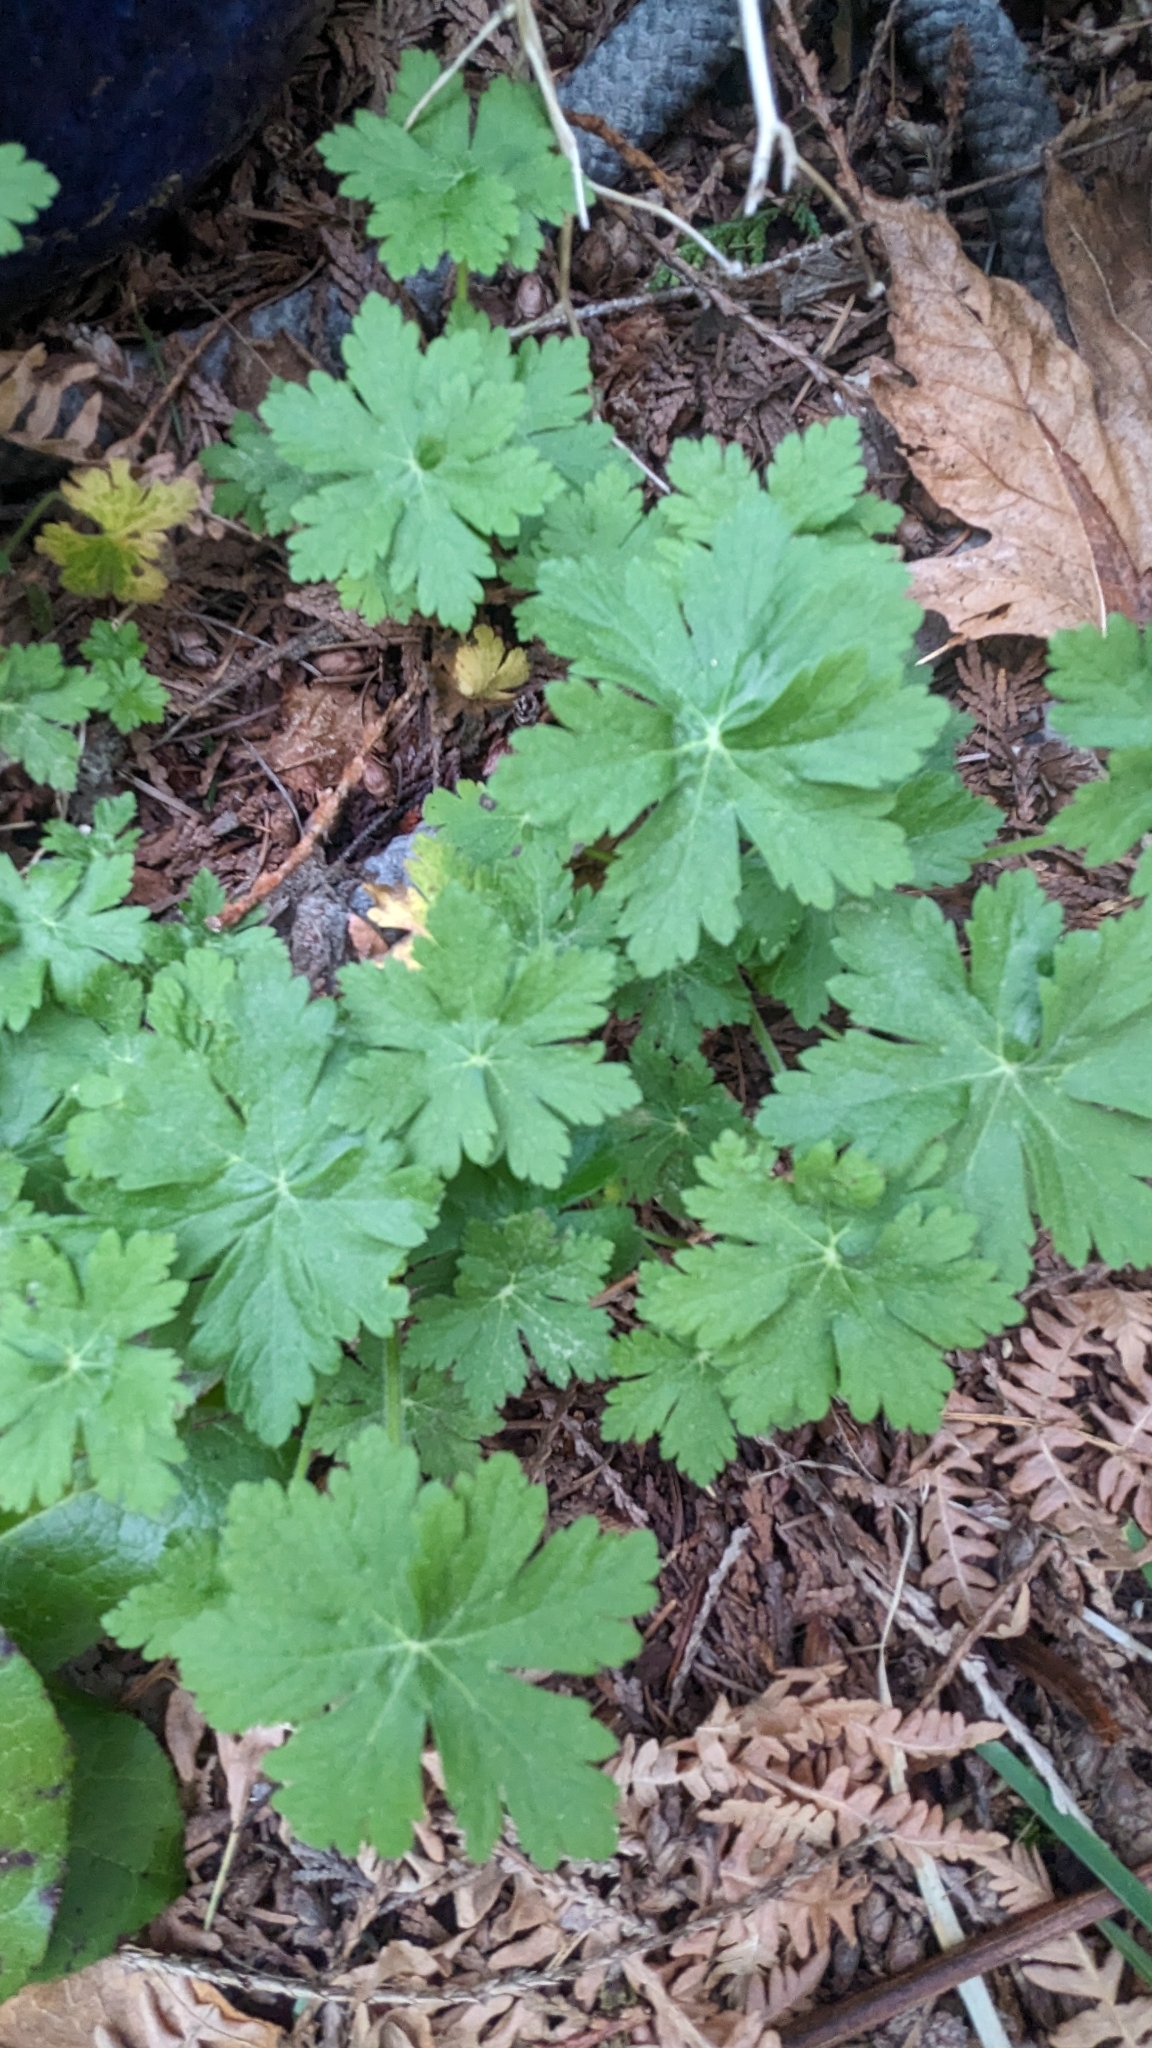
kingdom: Plantae
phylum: Tracheophyta
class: Magnoliopsida
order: Geraniales
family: Geraniaceae
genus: Geranium
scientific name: Geranium macrorrhizum
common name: Rock crane's-bill
